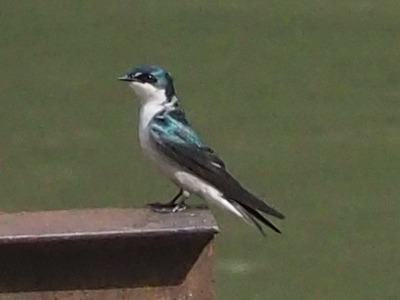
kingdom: Animalia
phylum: Chordata
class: Aves
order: Passeriformes
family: Hirundinidae
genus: Tachycineta
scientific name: Tachycineta albilinea
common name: Mangrove swallow
